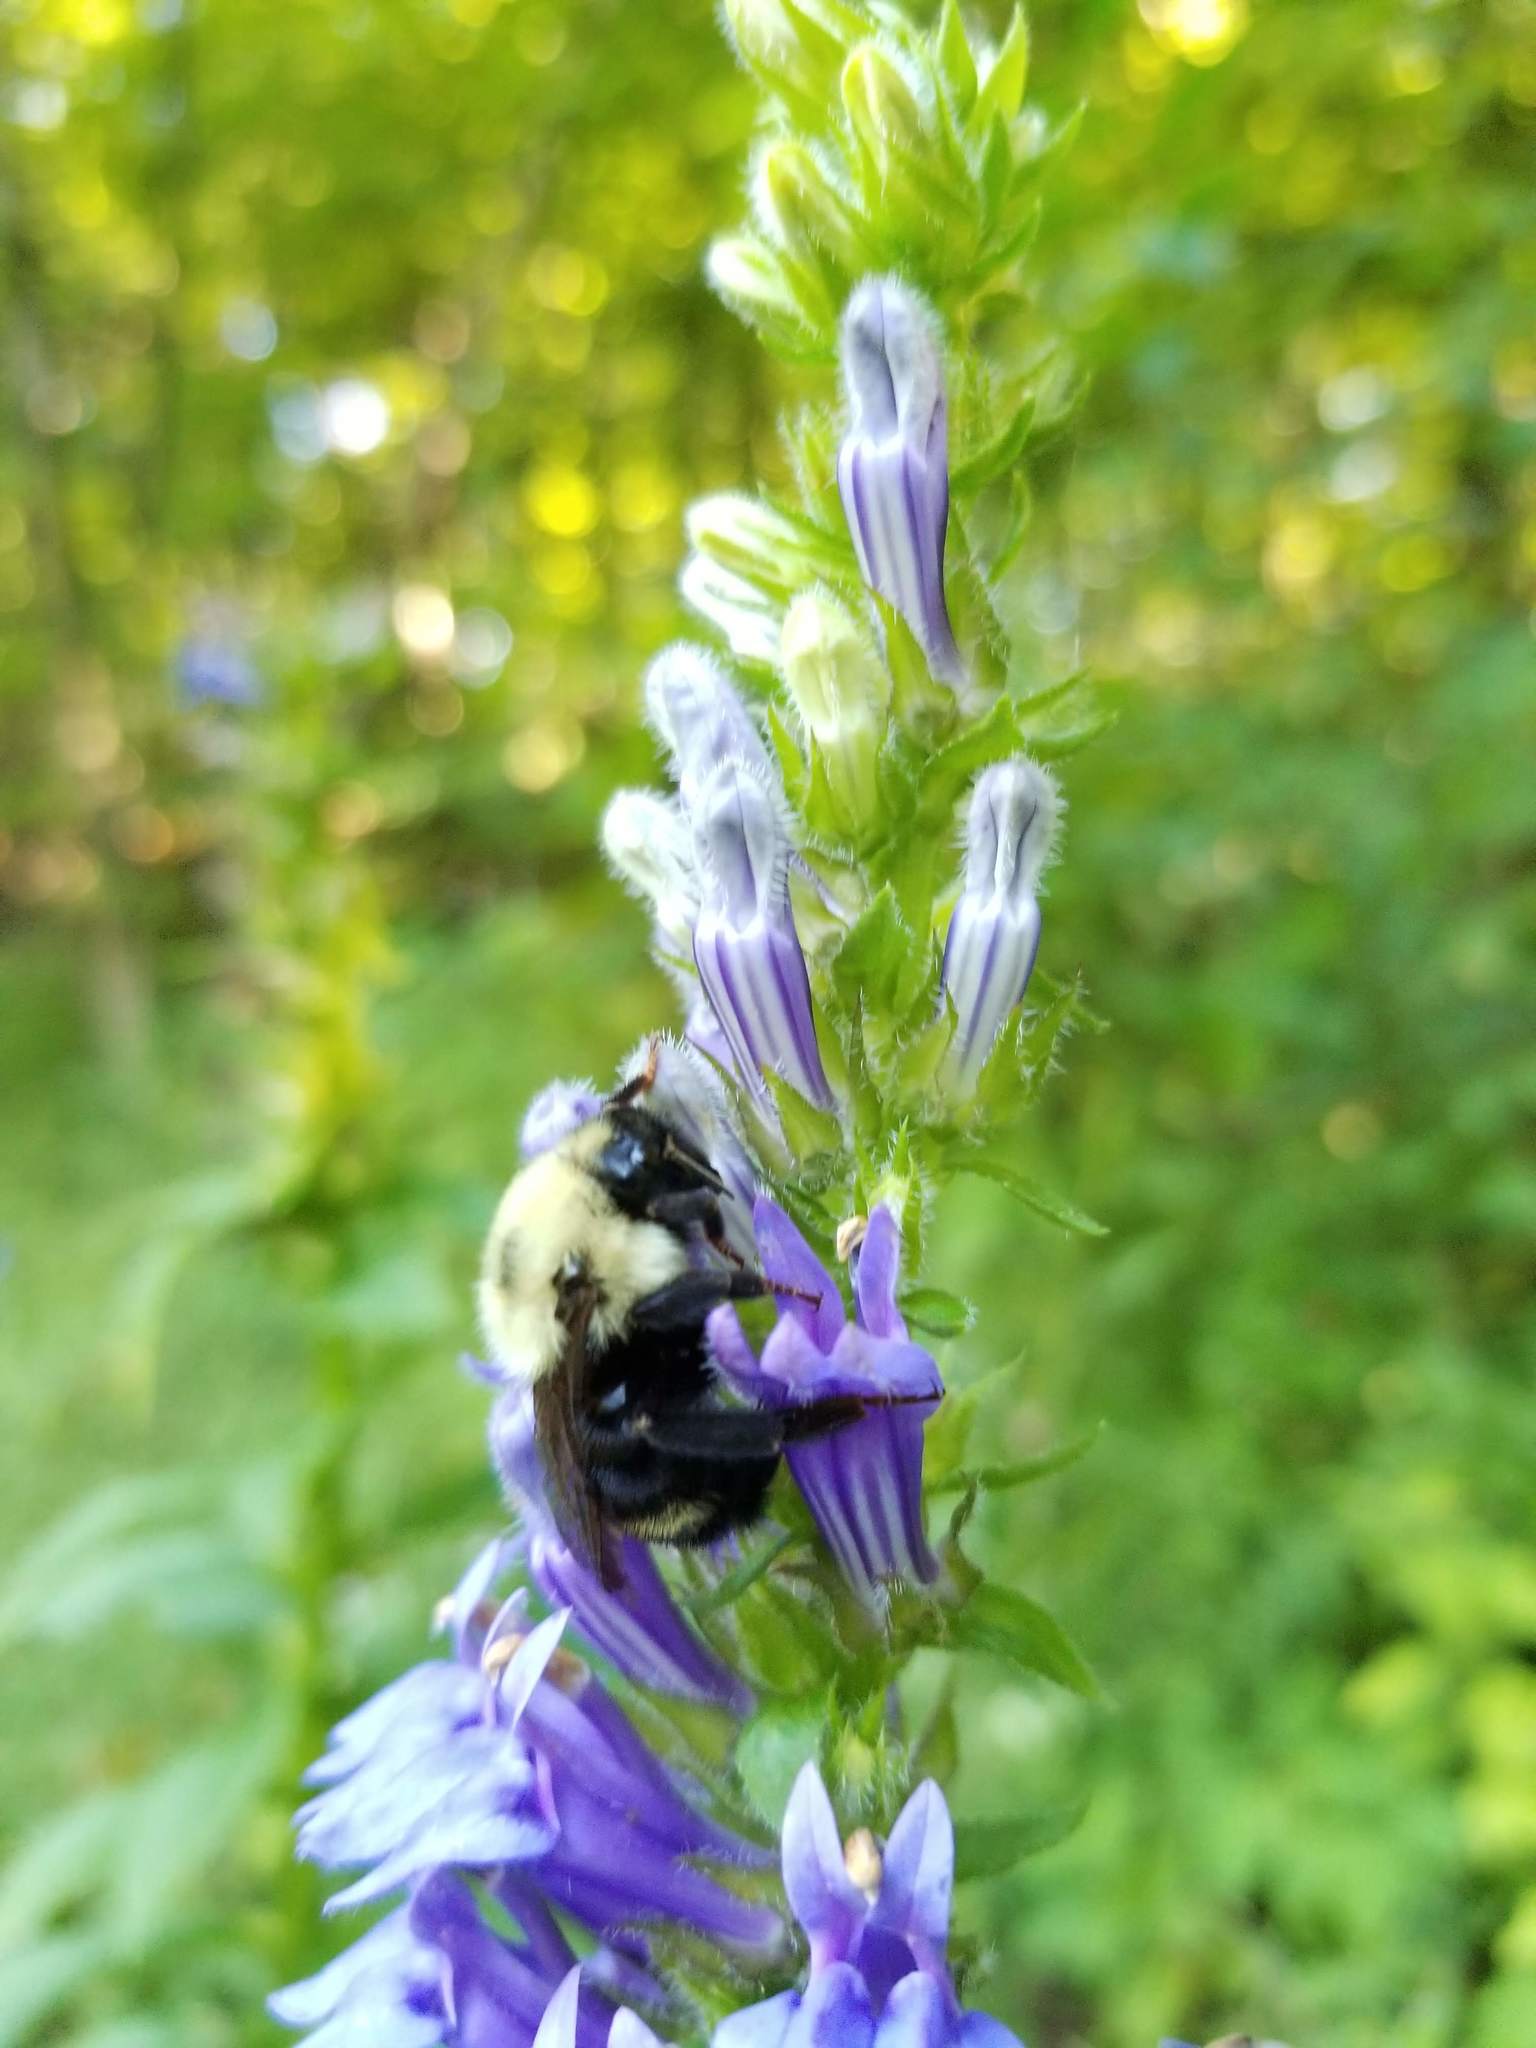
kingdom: Animalia
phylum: Arthropoda
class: Insecta
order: Hymenoptera
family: Apidae
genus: Bombus
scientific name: Bombus citrinus
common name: Lemon cuckoo bumble bee
